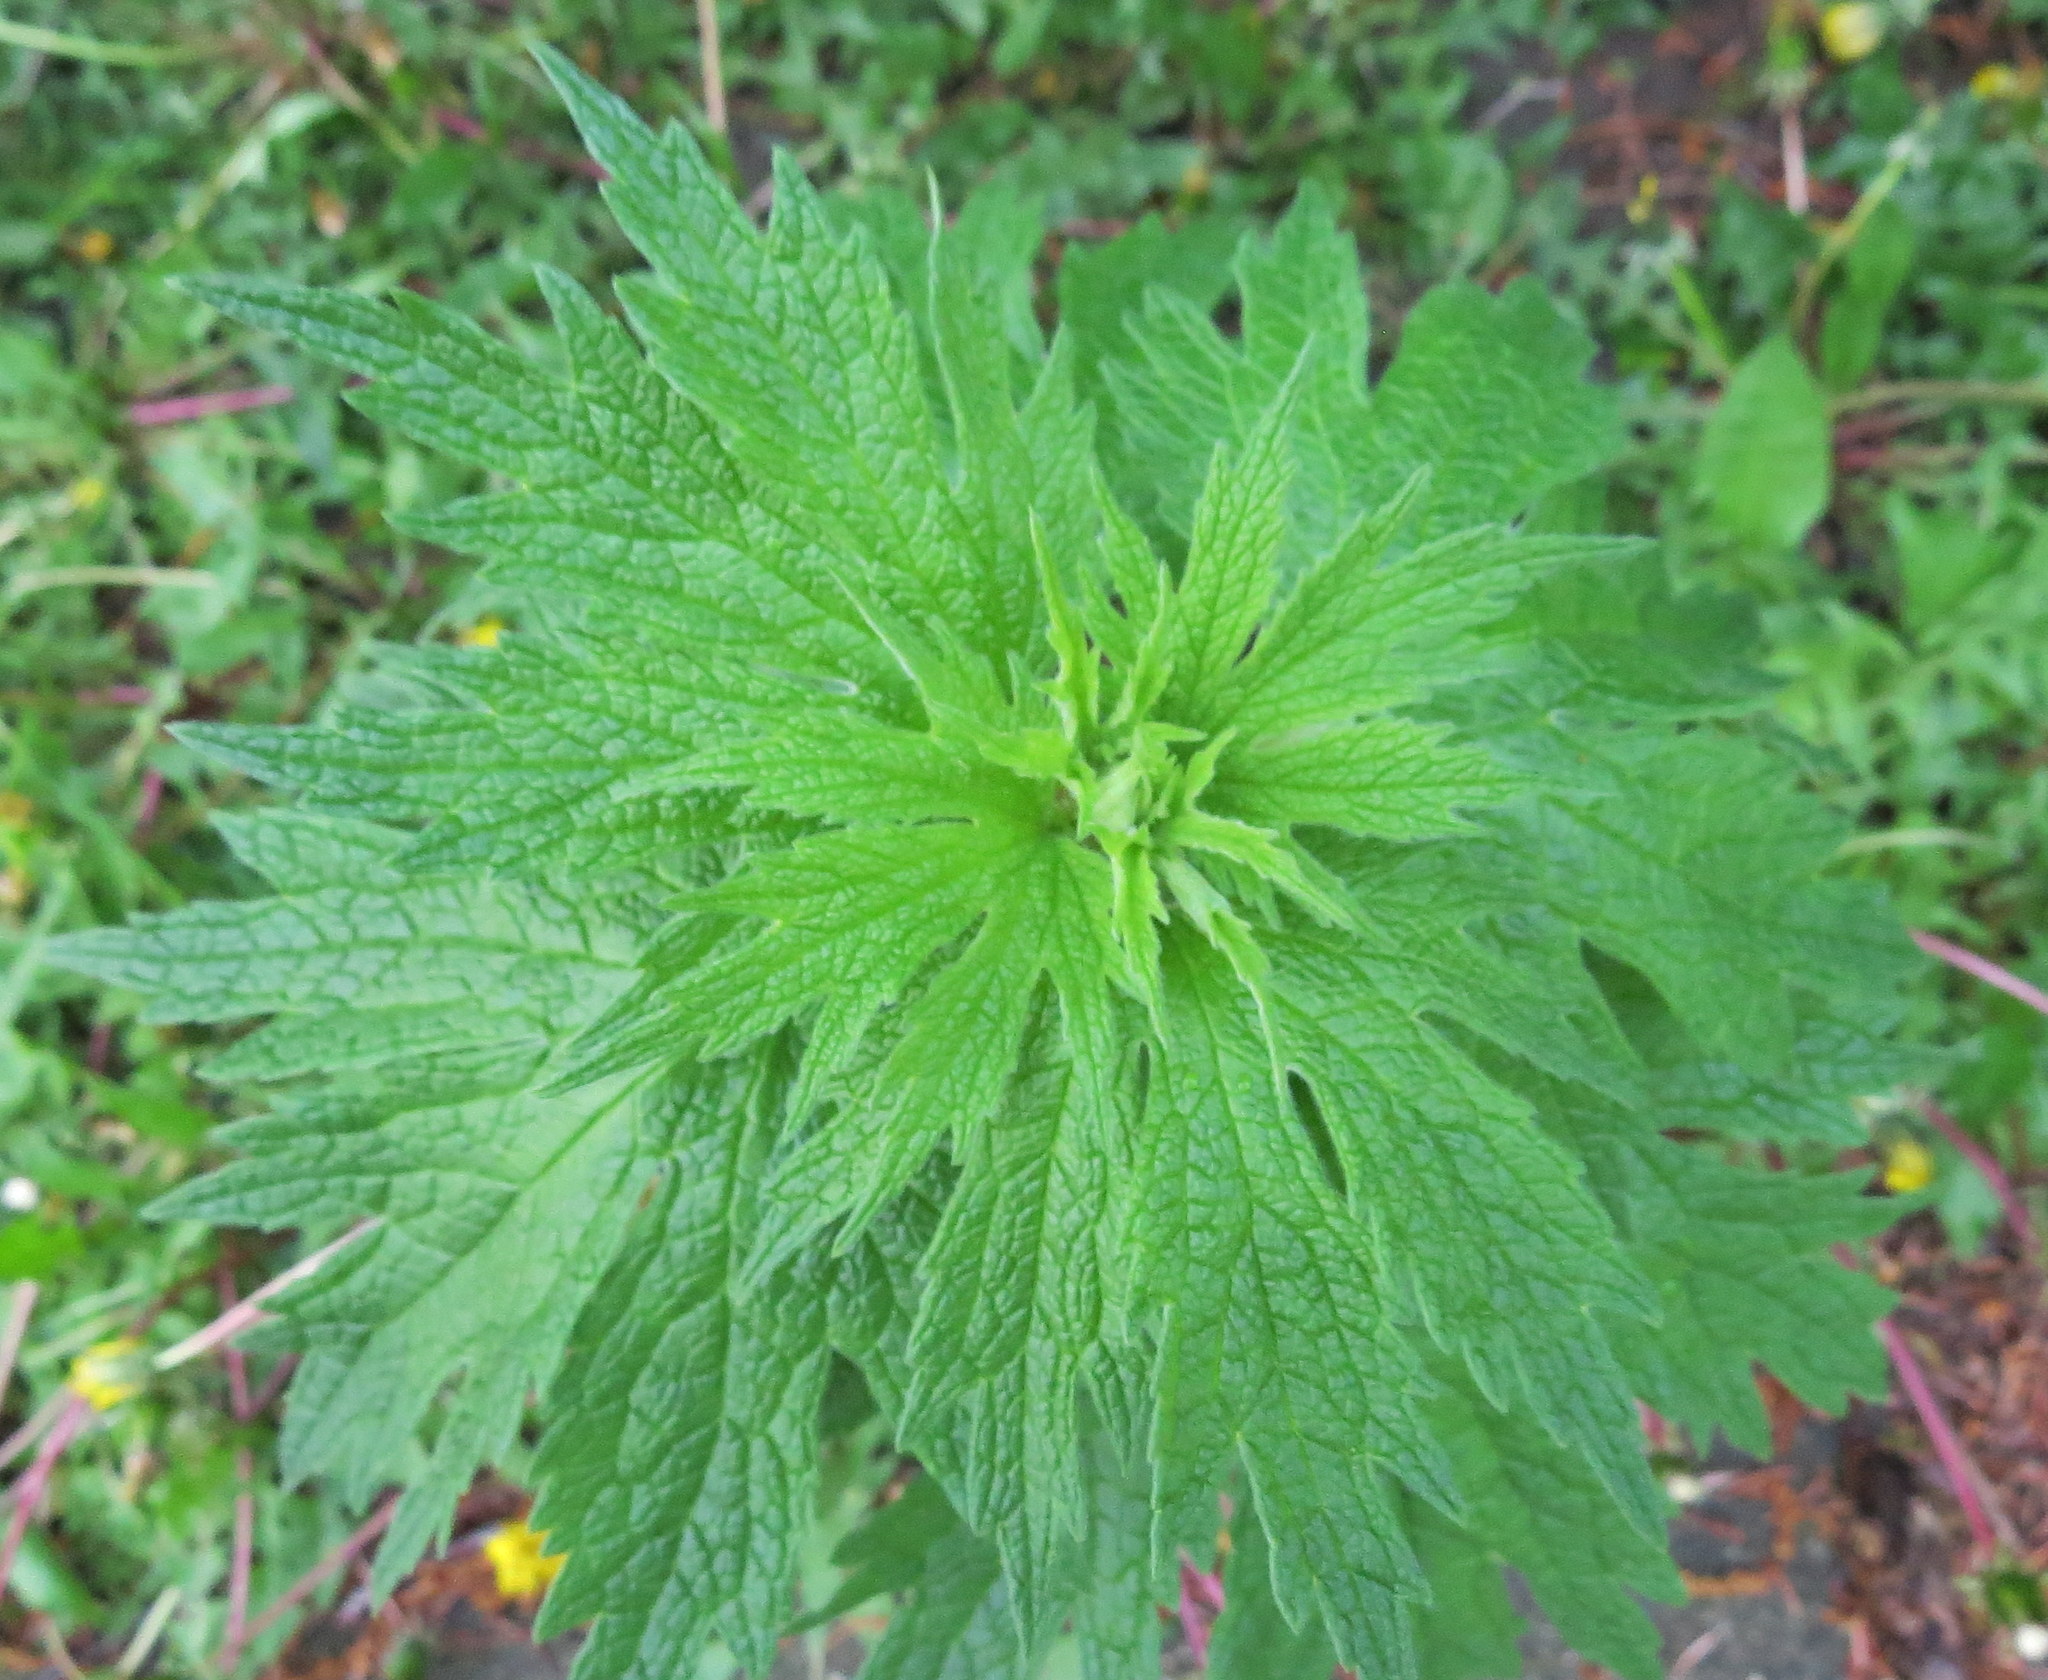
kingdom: Plantae
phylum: Tracheophyta
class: Magnoliopsida
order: Lamiales
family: Lamiaceae
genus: Leonurus
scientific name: Leonurus cardiaca
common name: Motherwort
